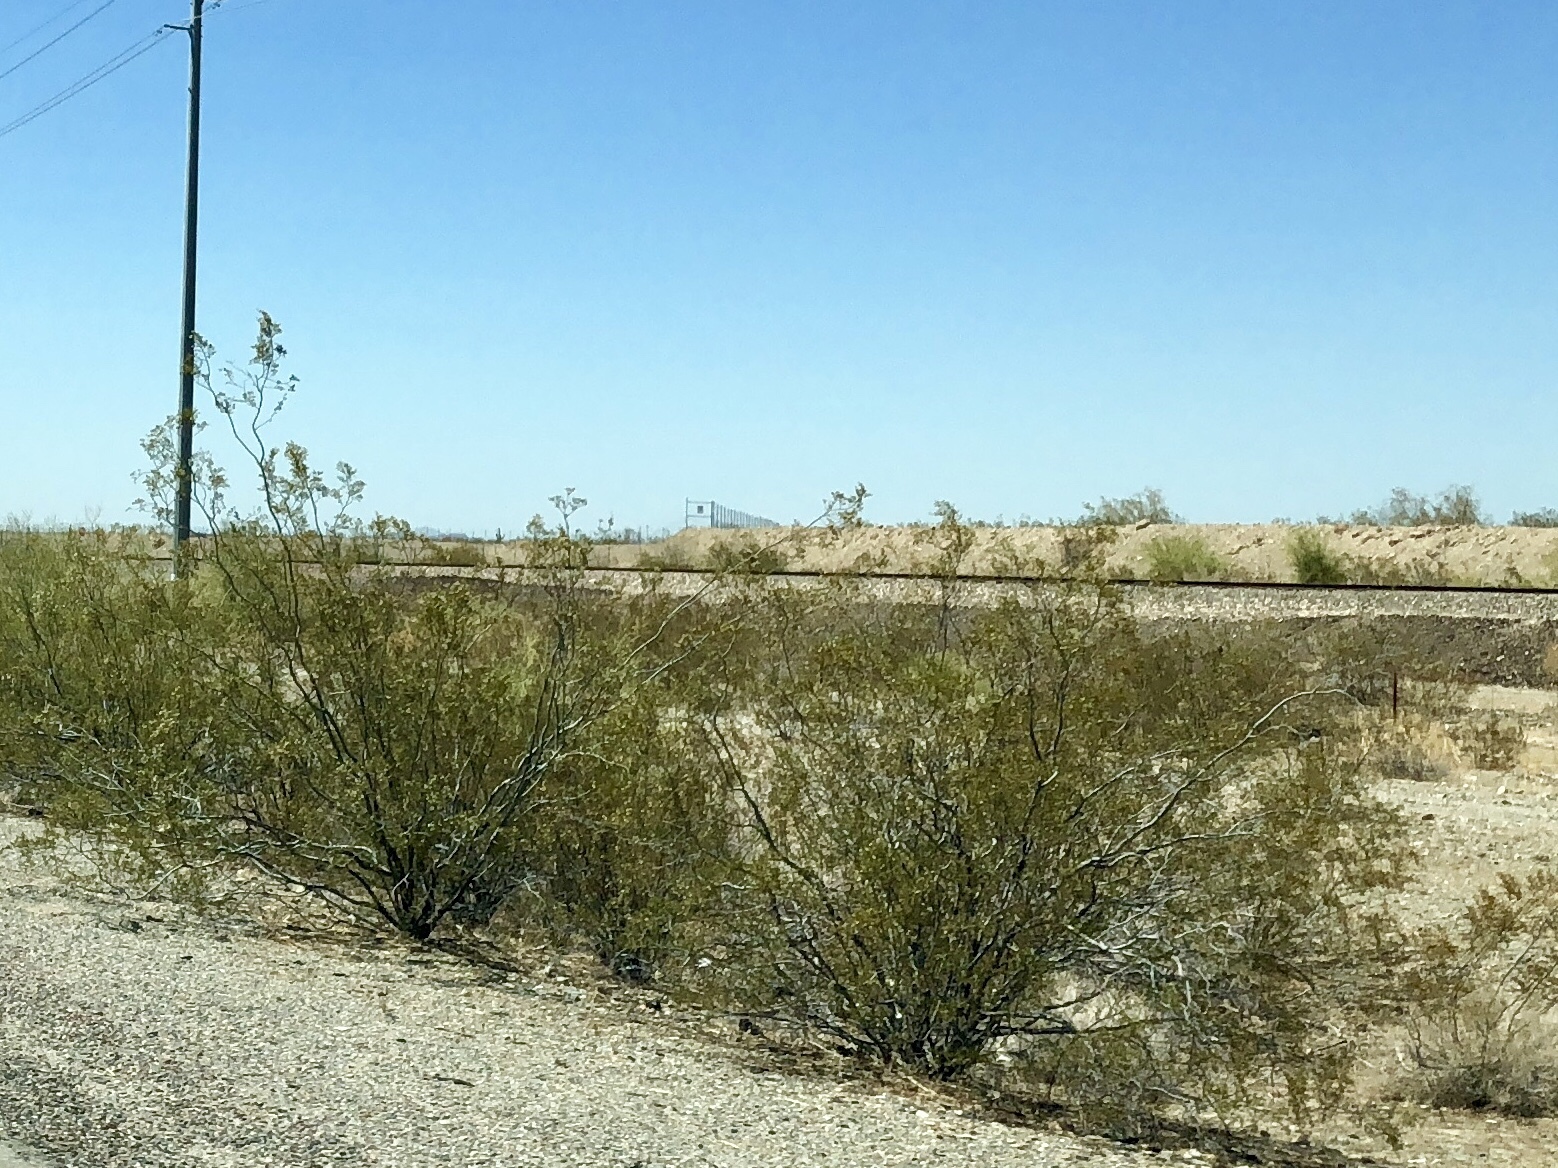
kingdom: Plantae
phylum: Tracheophyta
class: Magnoliopsida
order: Zygophyllales
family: Zygophyllaceae
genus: Larrea
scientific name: Larrea tridentata
